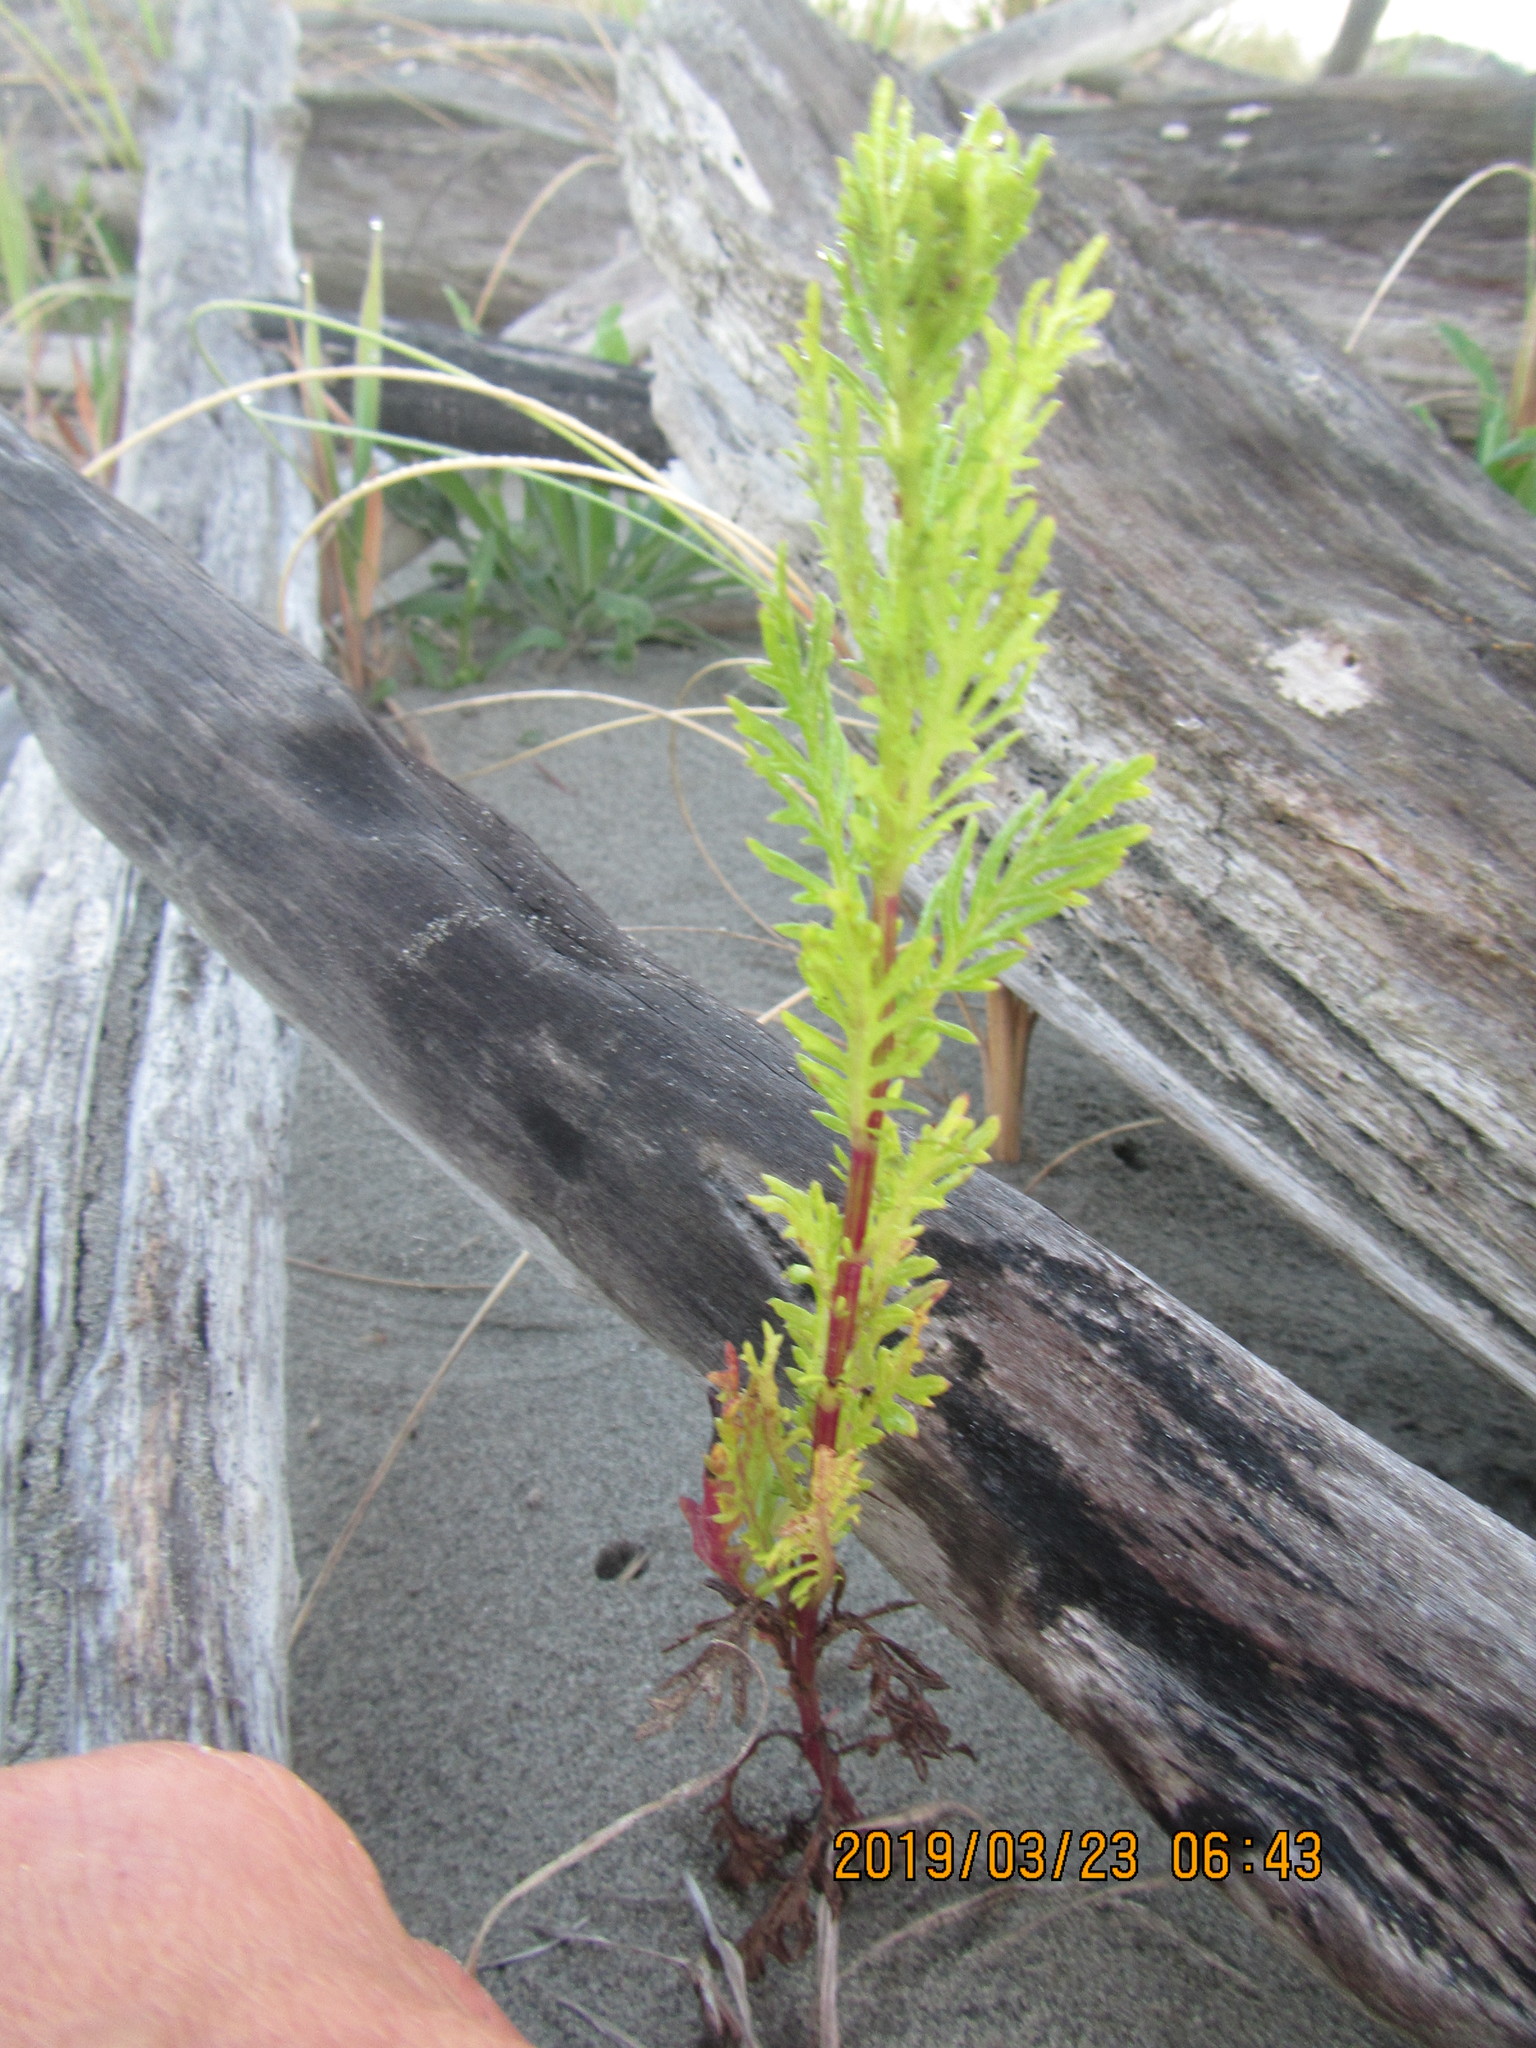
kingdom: Plantae
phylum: Tracheophyta
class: Magnoliopsida
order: Asterales
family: Asteraceae
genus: Senecio
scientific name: Senecio bipinnatisectus
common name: Australian fireweed
